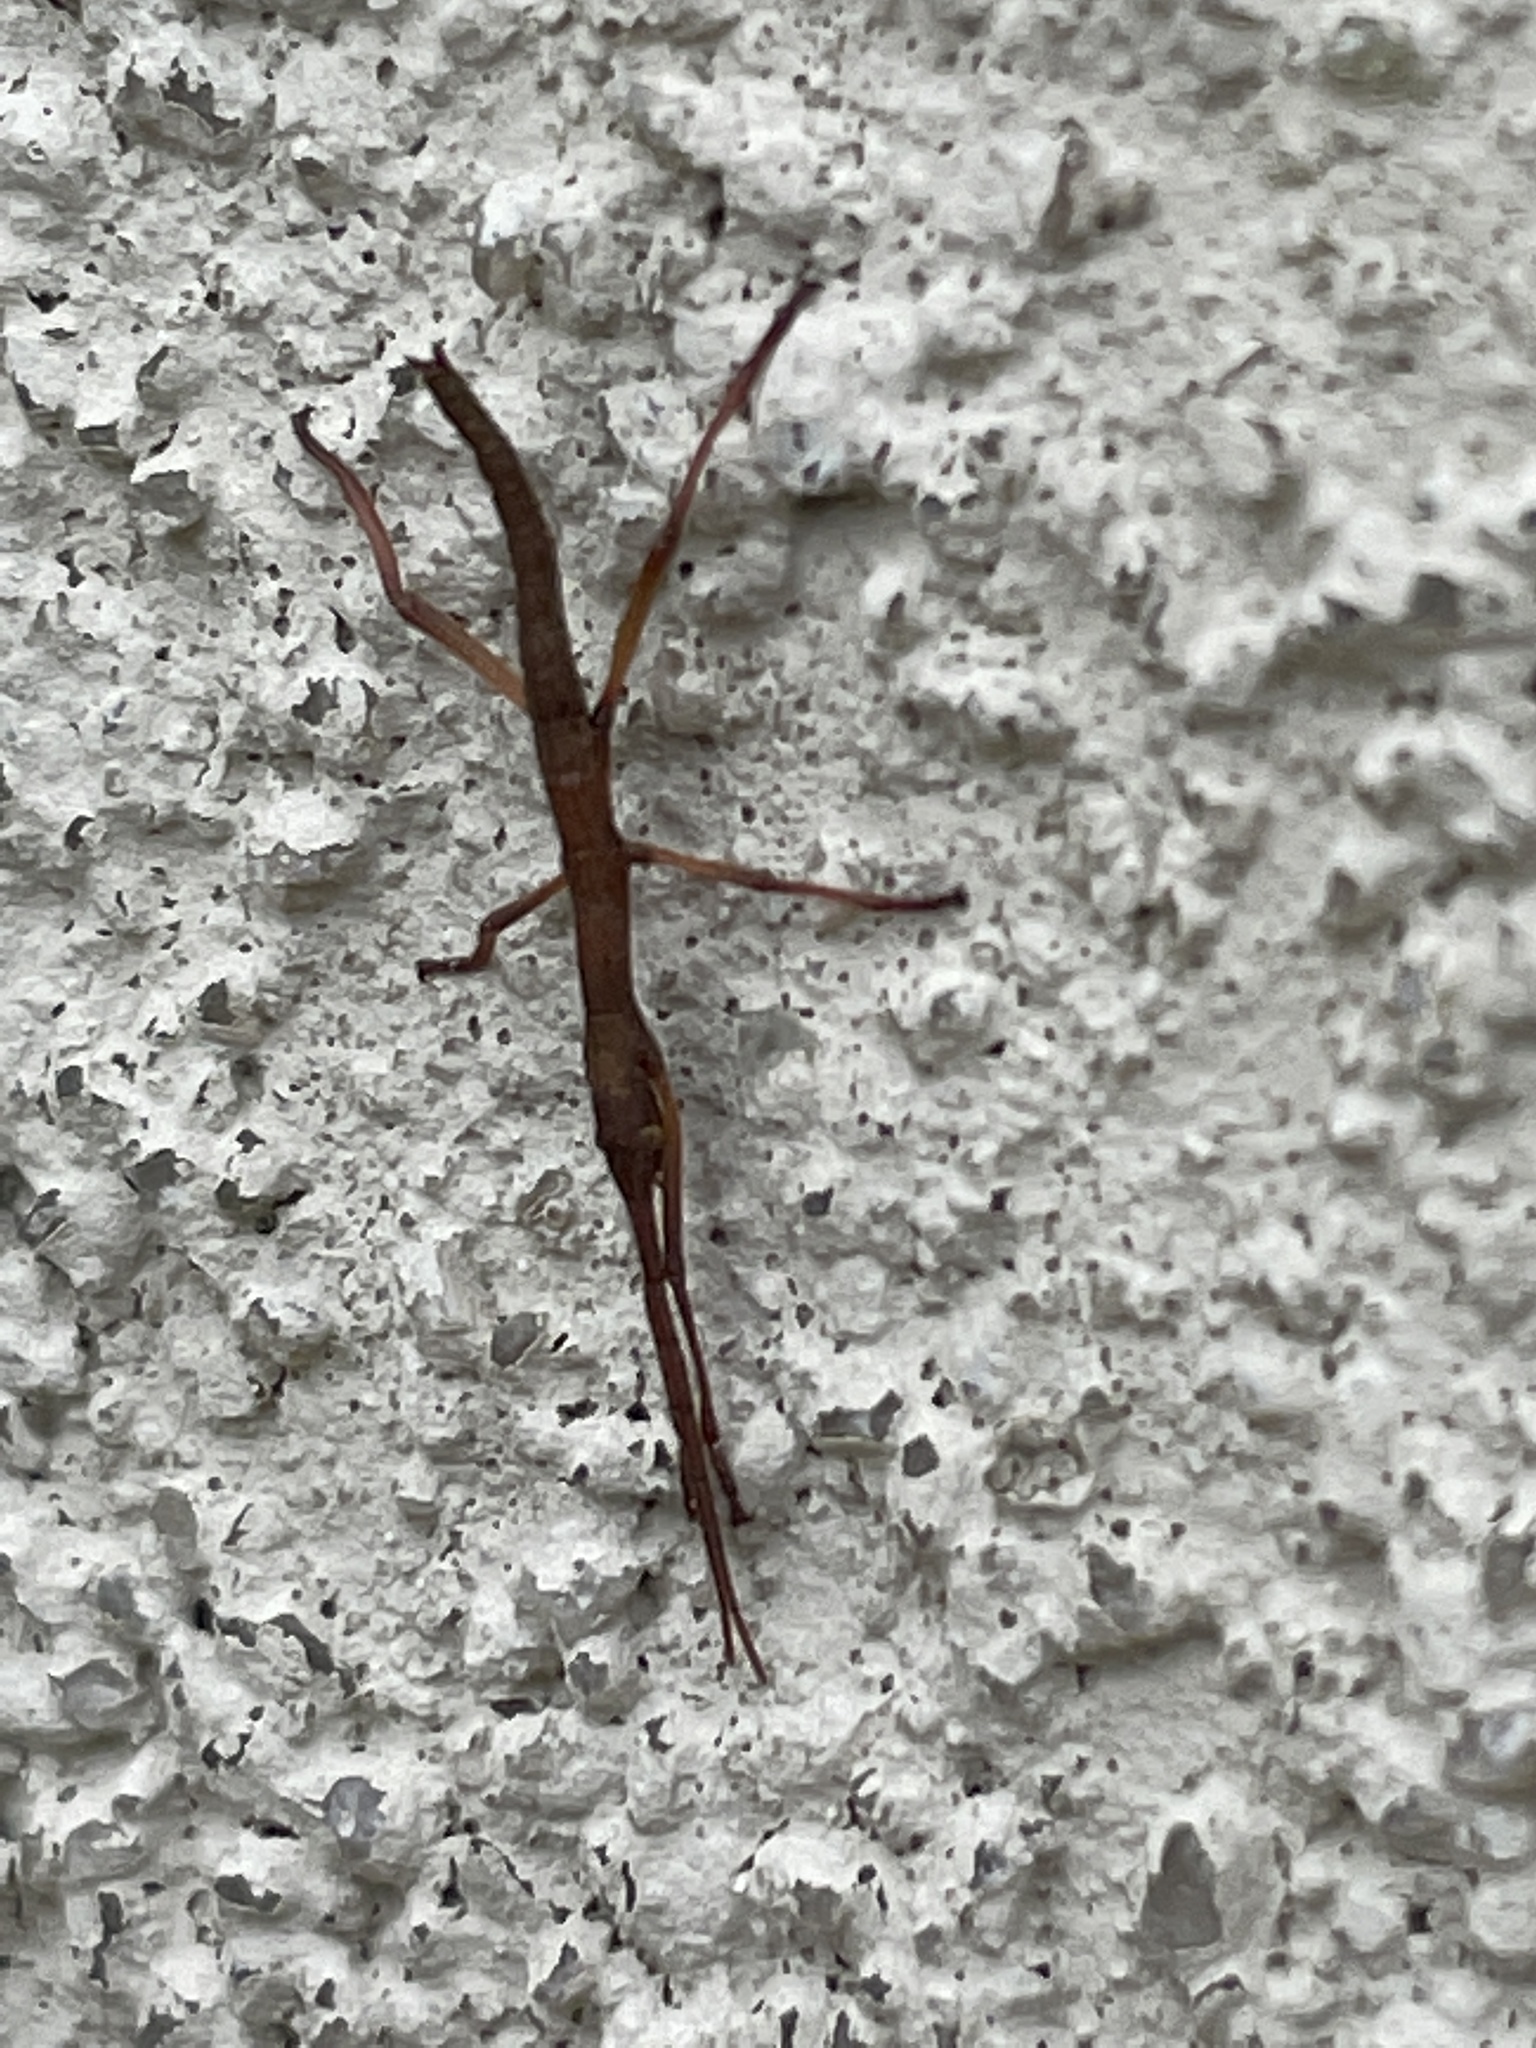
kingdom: Animalia
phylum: Arthropoda
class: Insecta
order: Phasmida
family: Pseudophasmatidae
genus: Anisomorpha
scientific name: Anisomorpha buprestoides
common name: Florida stick insect
